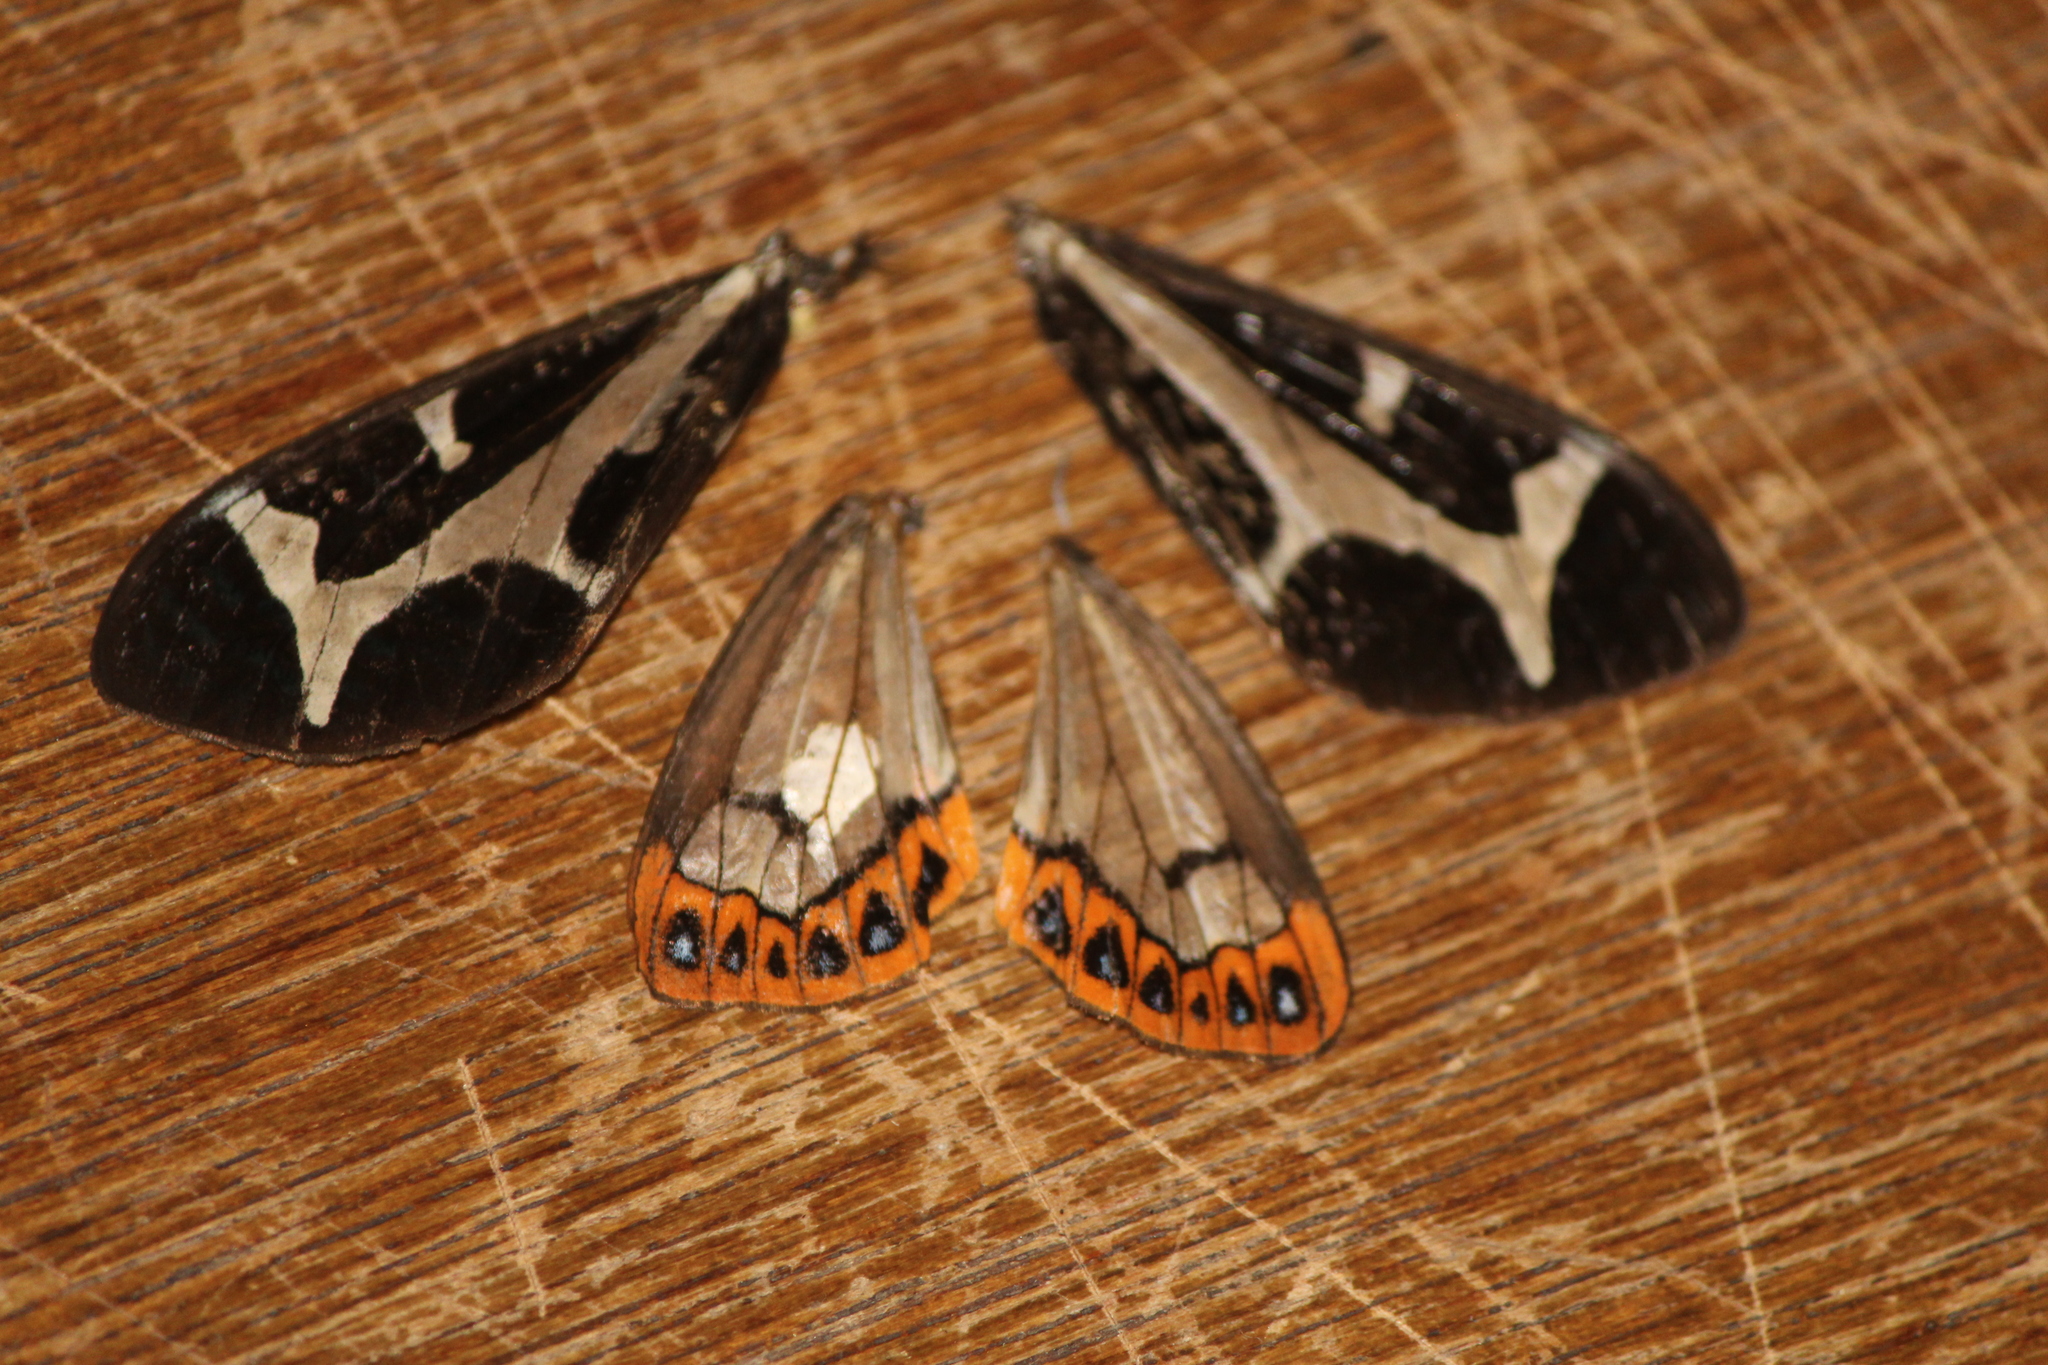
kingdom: Animalia
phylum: Arthropoda
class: Insecta
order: Lepidoptera
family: Erebidae
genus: Dysschema
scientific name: Dysschema howardi
